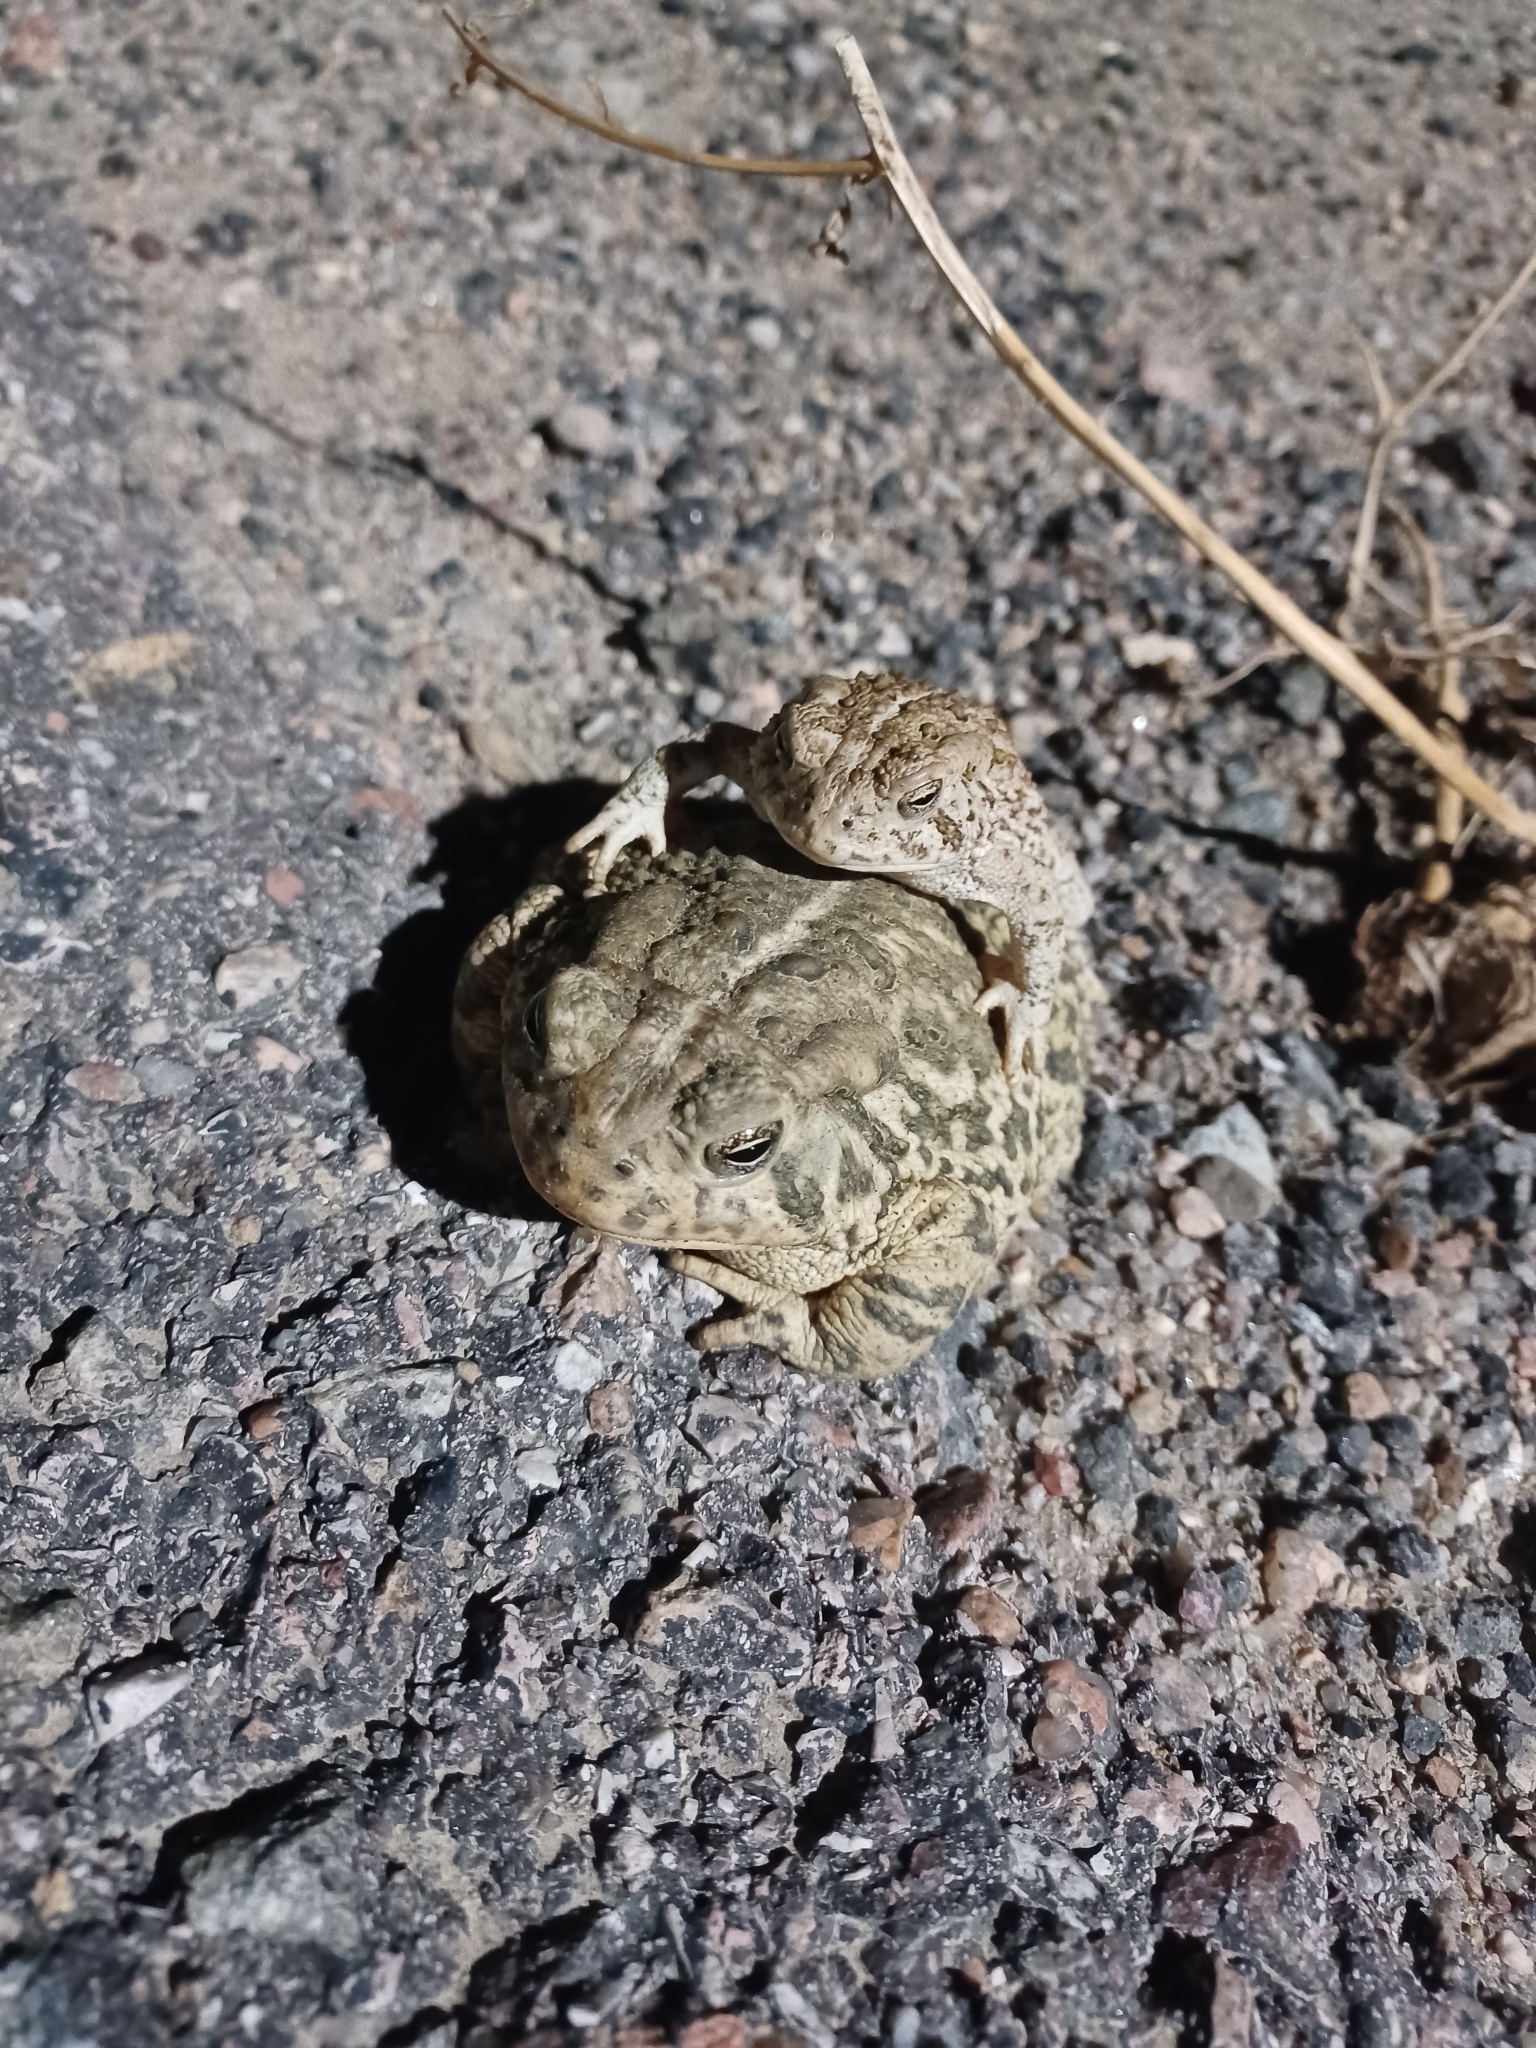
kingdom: Animalia
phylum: Chordata
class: Amphibia
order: Anura
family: Bufonidae
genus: Anaxyrus
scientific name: Anaxyrus woodhousii
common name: Woodhouse's toad
